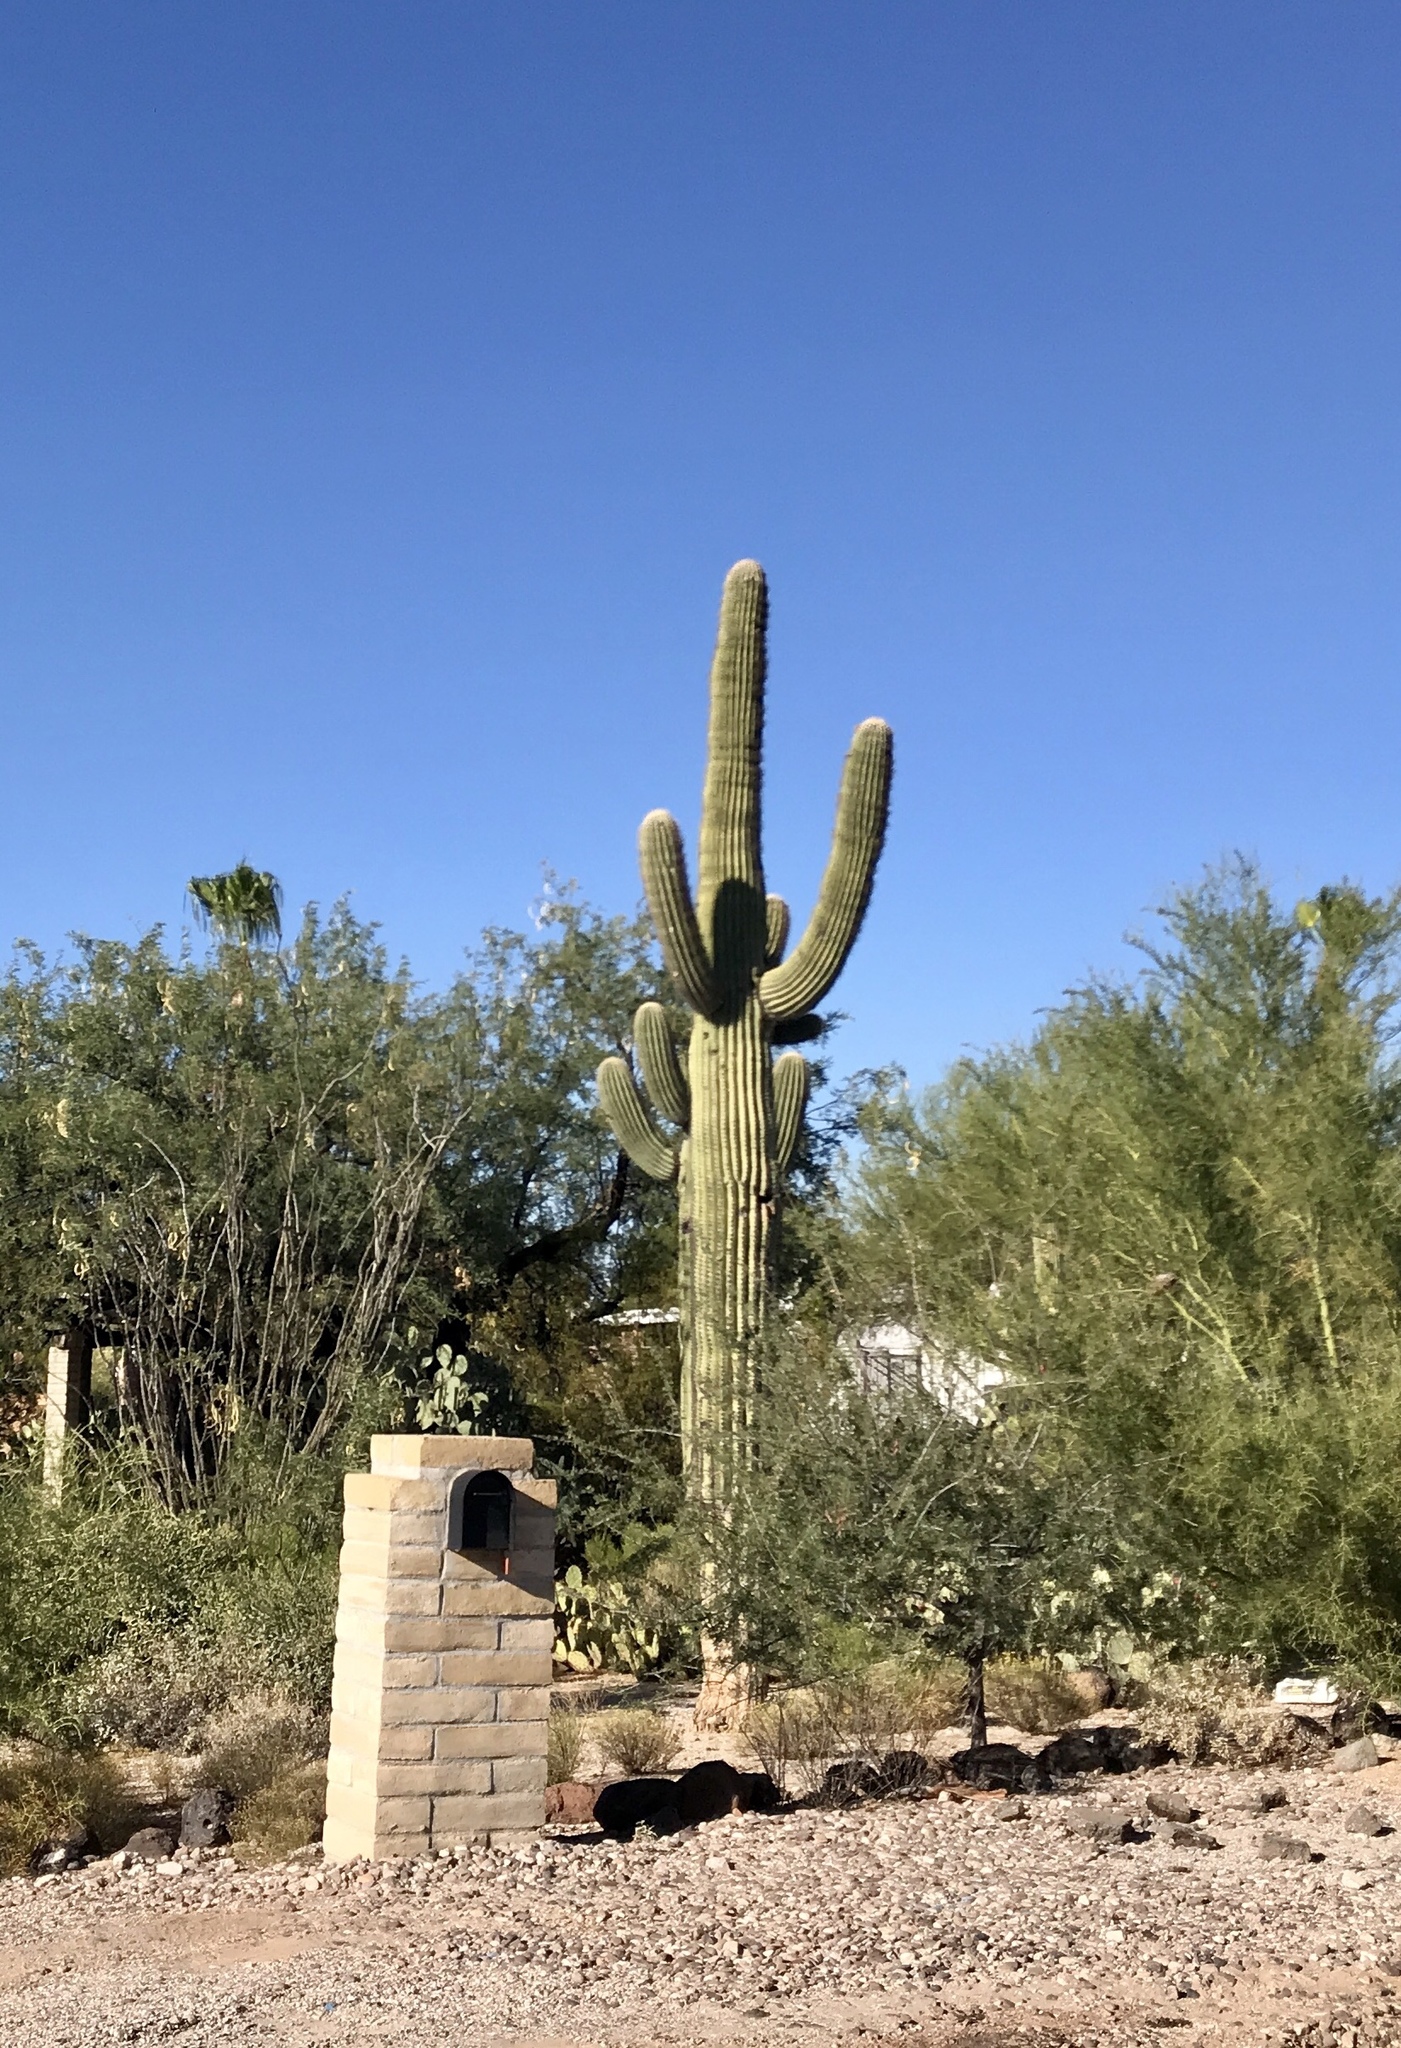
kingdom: Plantae
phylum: Tracheophyta
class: Magnoliopsida
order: Caryophyllales
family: Cactaceae
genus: Carnegiea
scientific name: Carnegiea gigantea
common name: Saguaro
